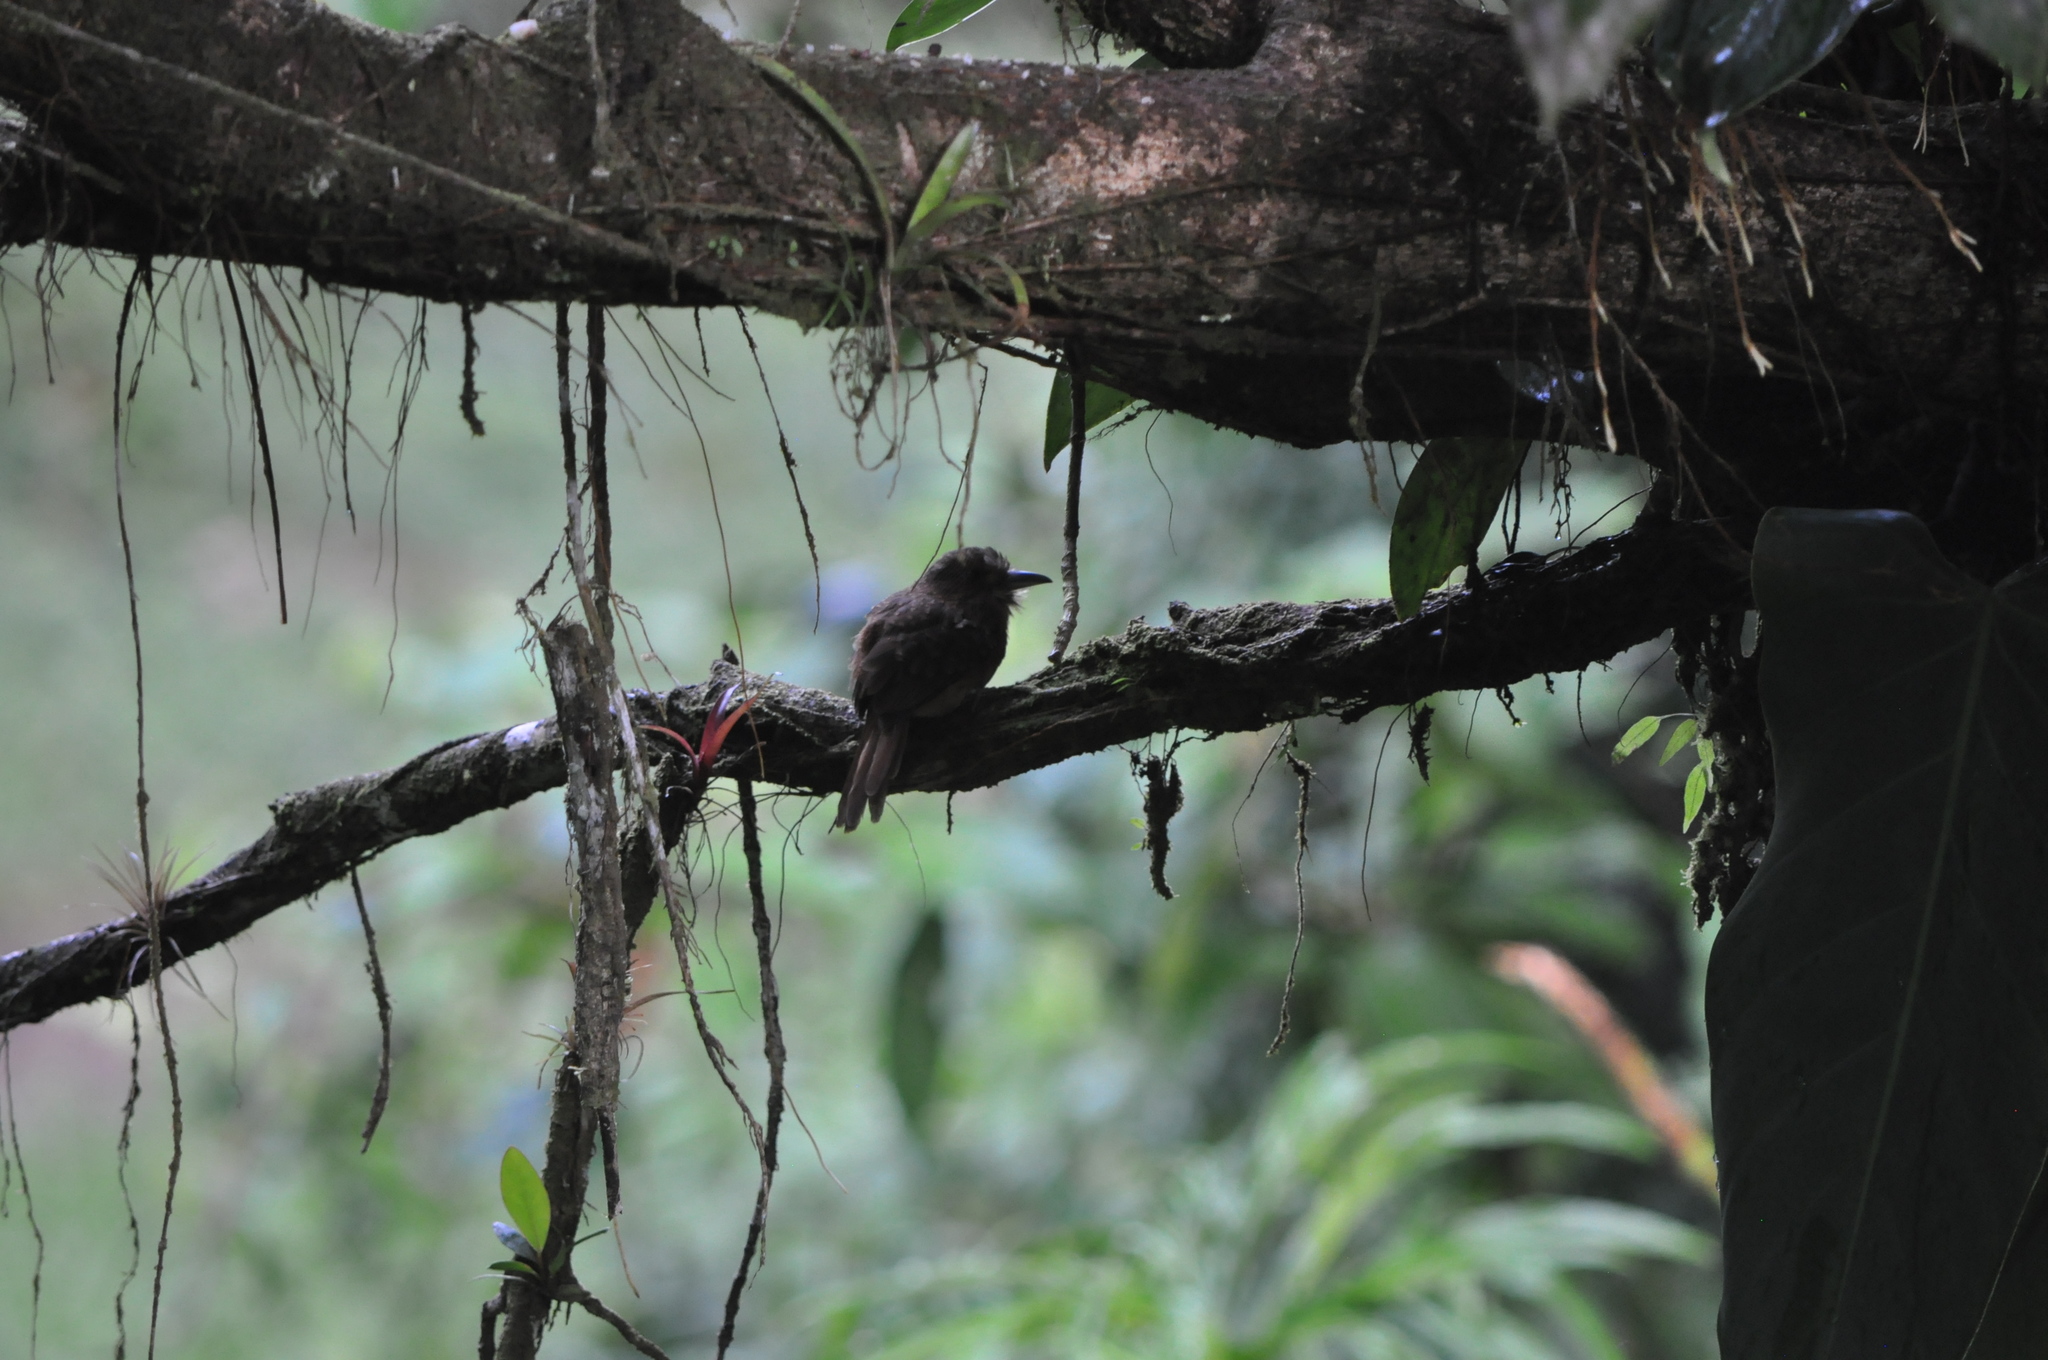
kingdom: Animalia
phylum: Chordata
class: Aves
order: Piciformes
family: Bucconidae
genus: Malacoptila
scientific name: Malacoptila panamensis
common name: White-whiskered puffbird
